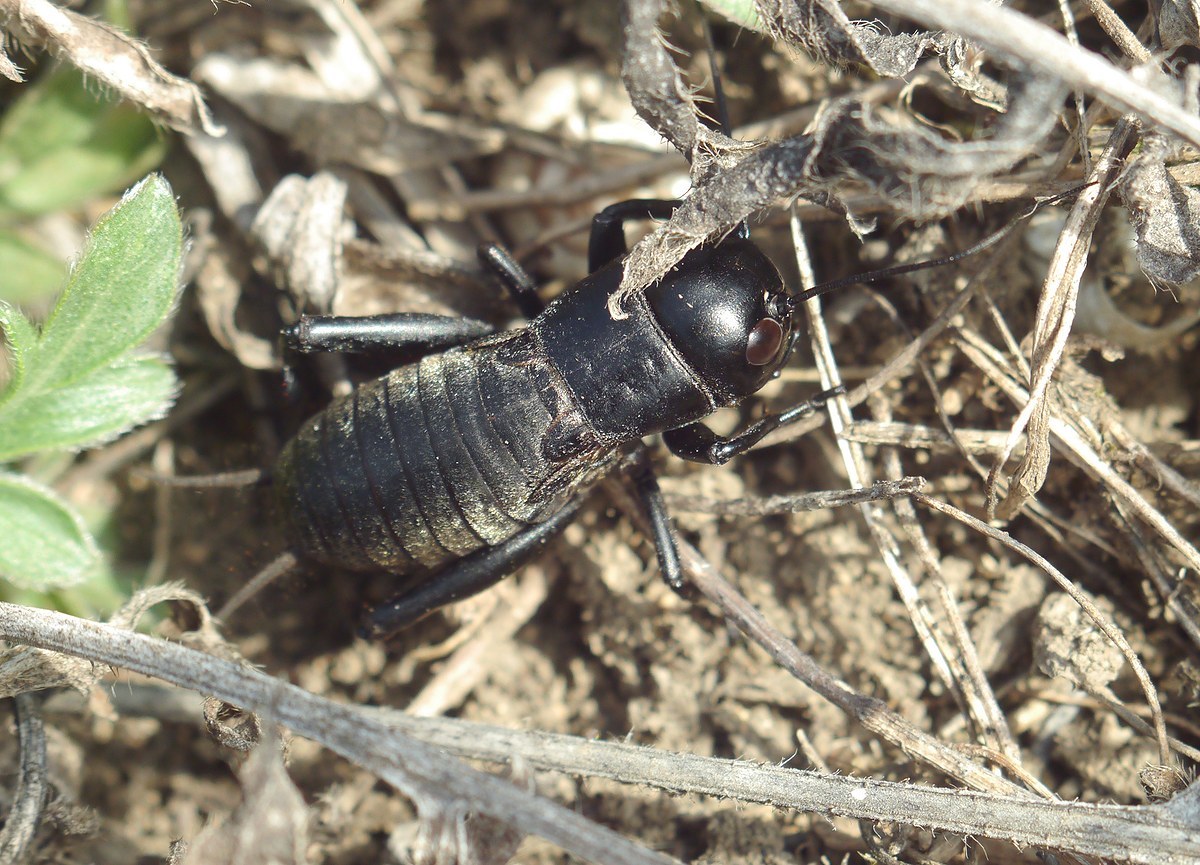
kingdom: Animalia
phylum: Arthropoda
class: Insecta
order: Orthoptera
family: Gryllidae
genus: Gryllus
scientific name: Gryllus campestris
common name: Field cricket
